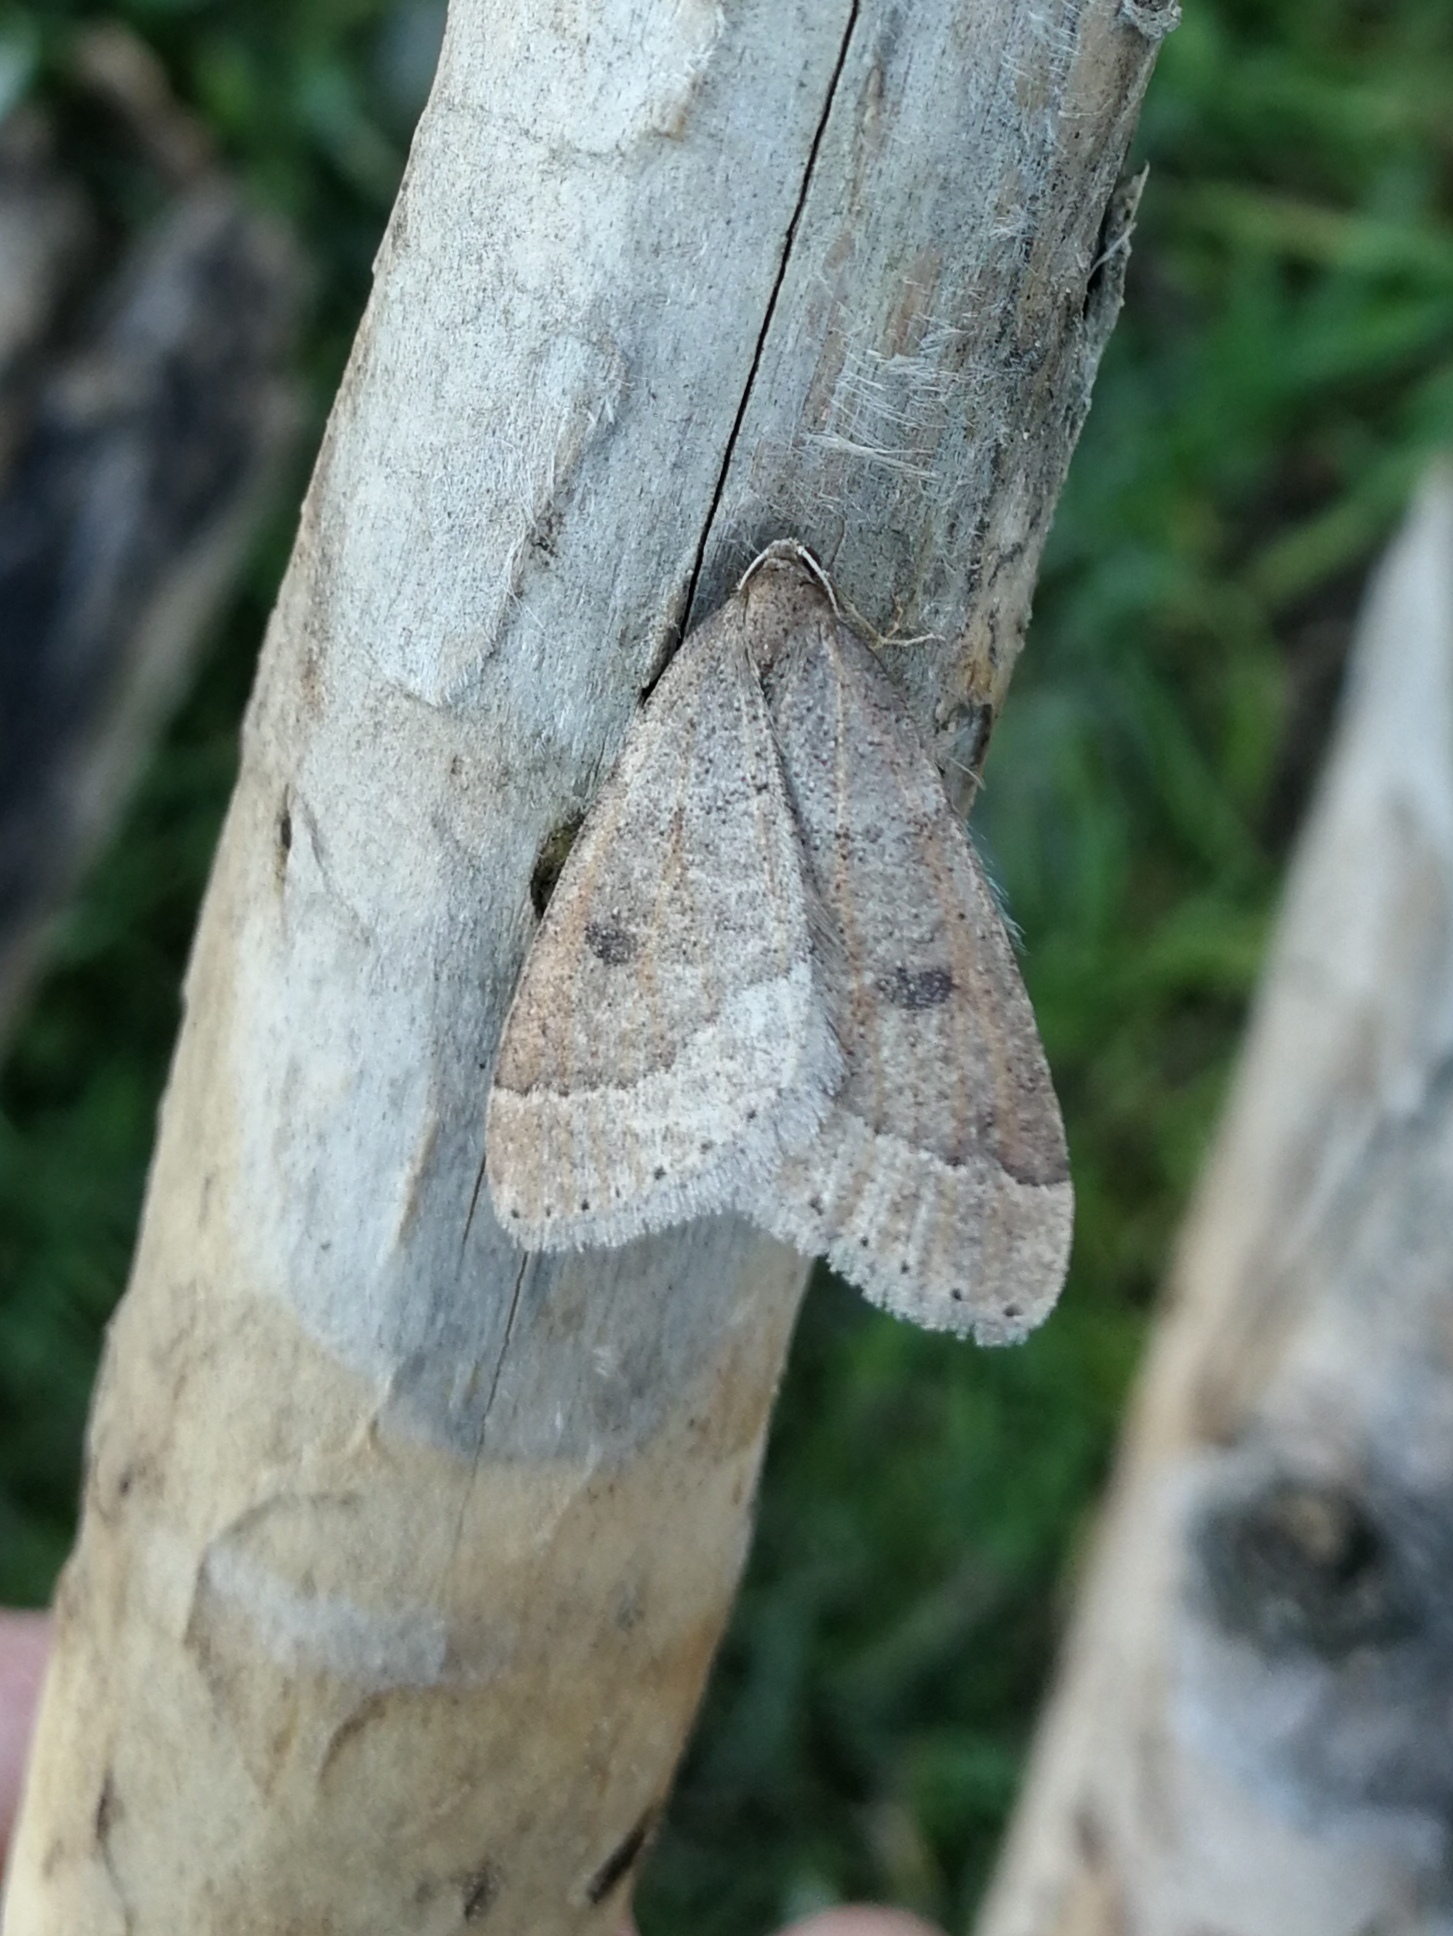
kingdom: Animalia
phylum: Arthropoda
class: Insecta
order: Lepidoptera
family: Geometridae
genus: Theria
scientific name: Theria primaria
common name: Early moth
